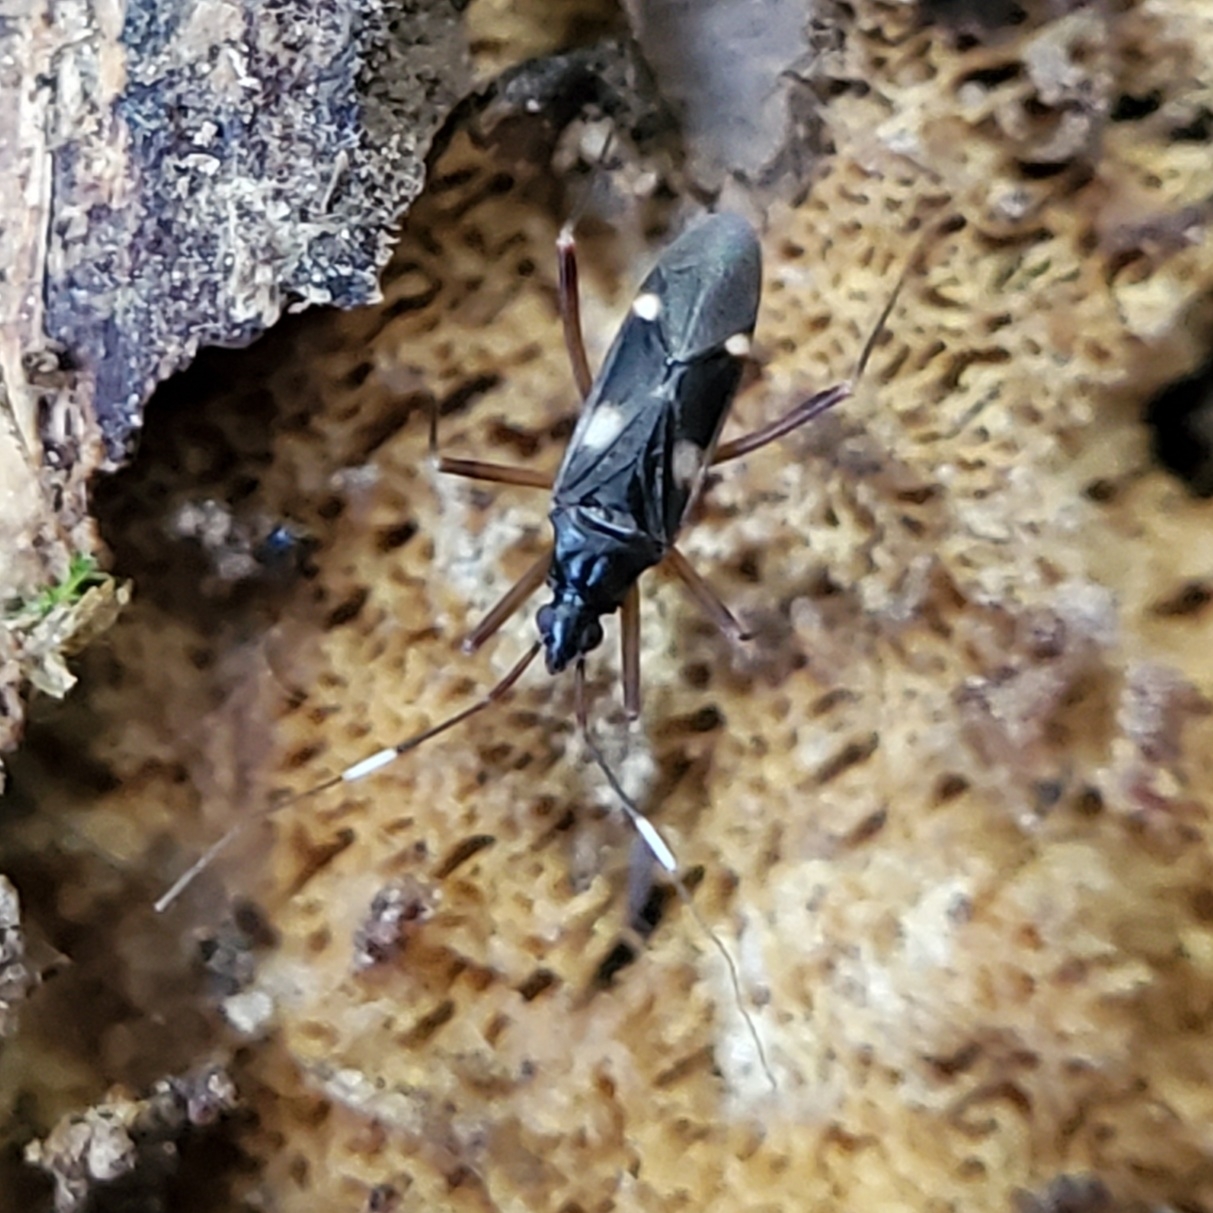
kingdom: Animalia
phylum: Arthropoda
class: Insecta
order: Hemiptera
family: Miridae
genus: Fulvius
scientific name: Fulvius imbecilis
